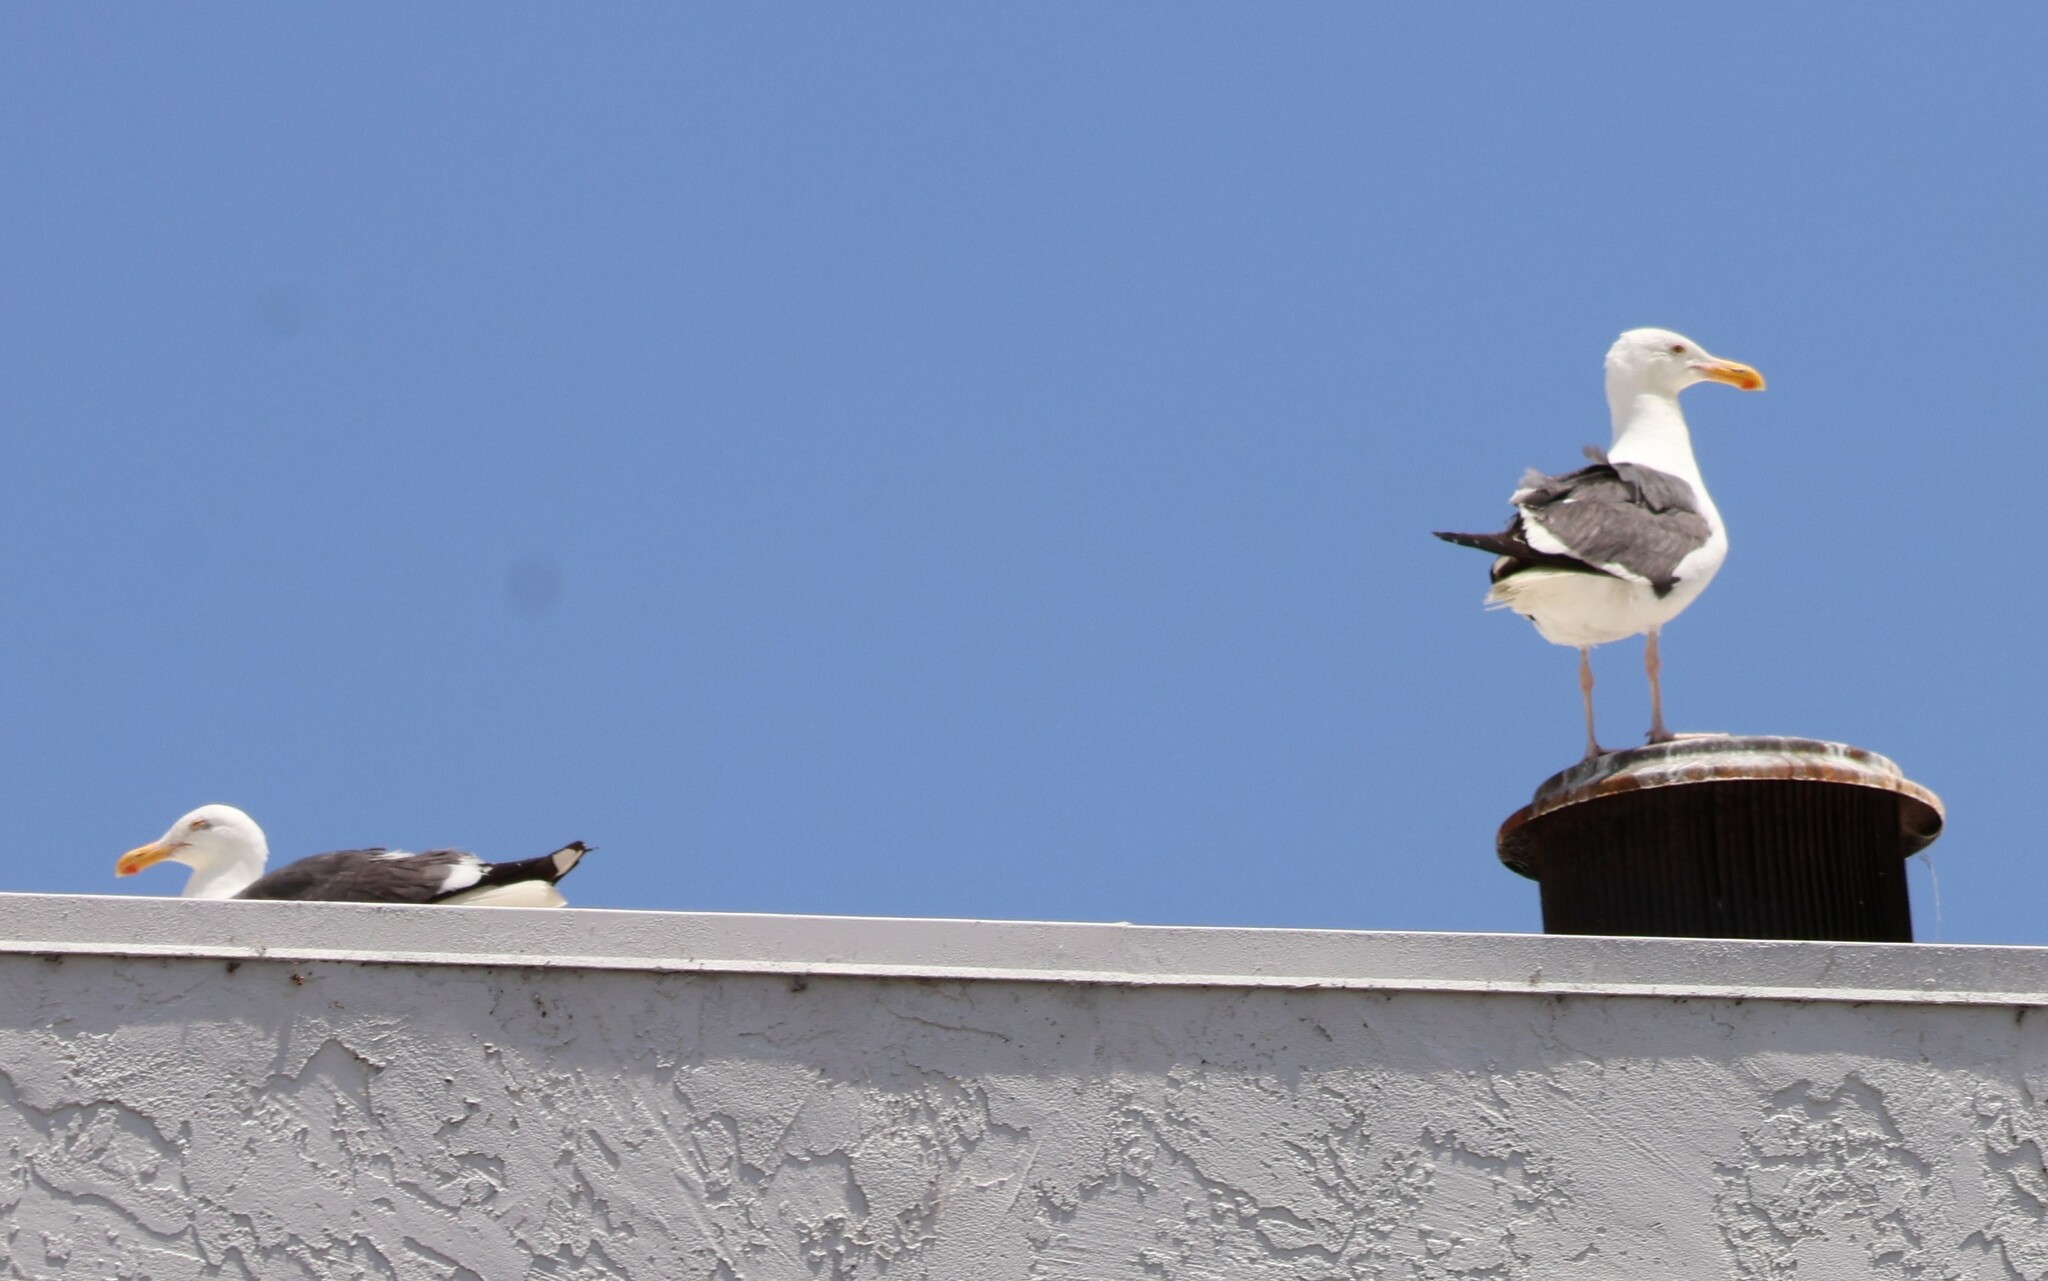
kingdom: Animalia
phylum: Chordata
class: Aves
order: Charadriiformes
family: Laridae
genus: Larus
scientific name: Larus occidentalis
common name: Western gull
